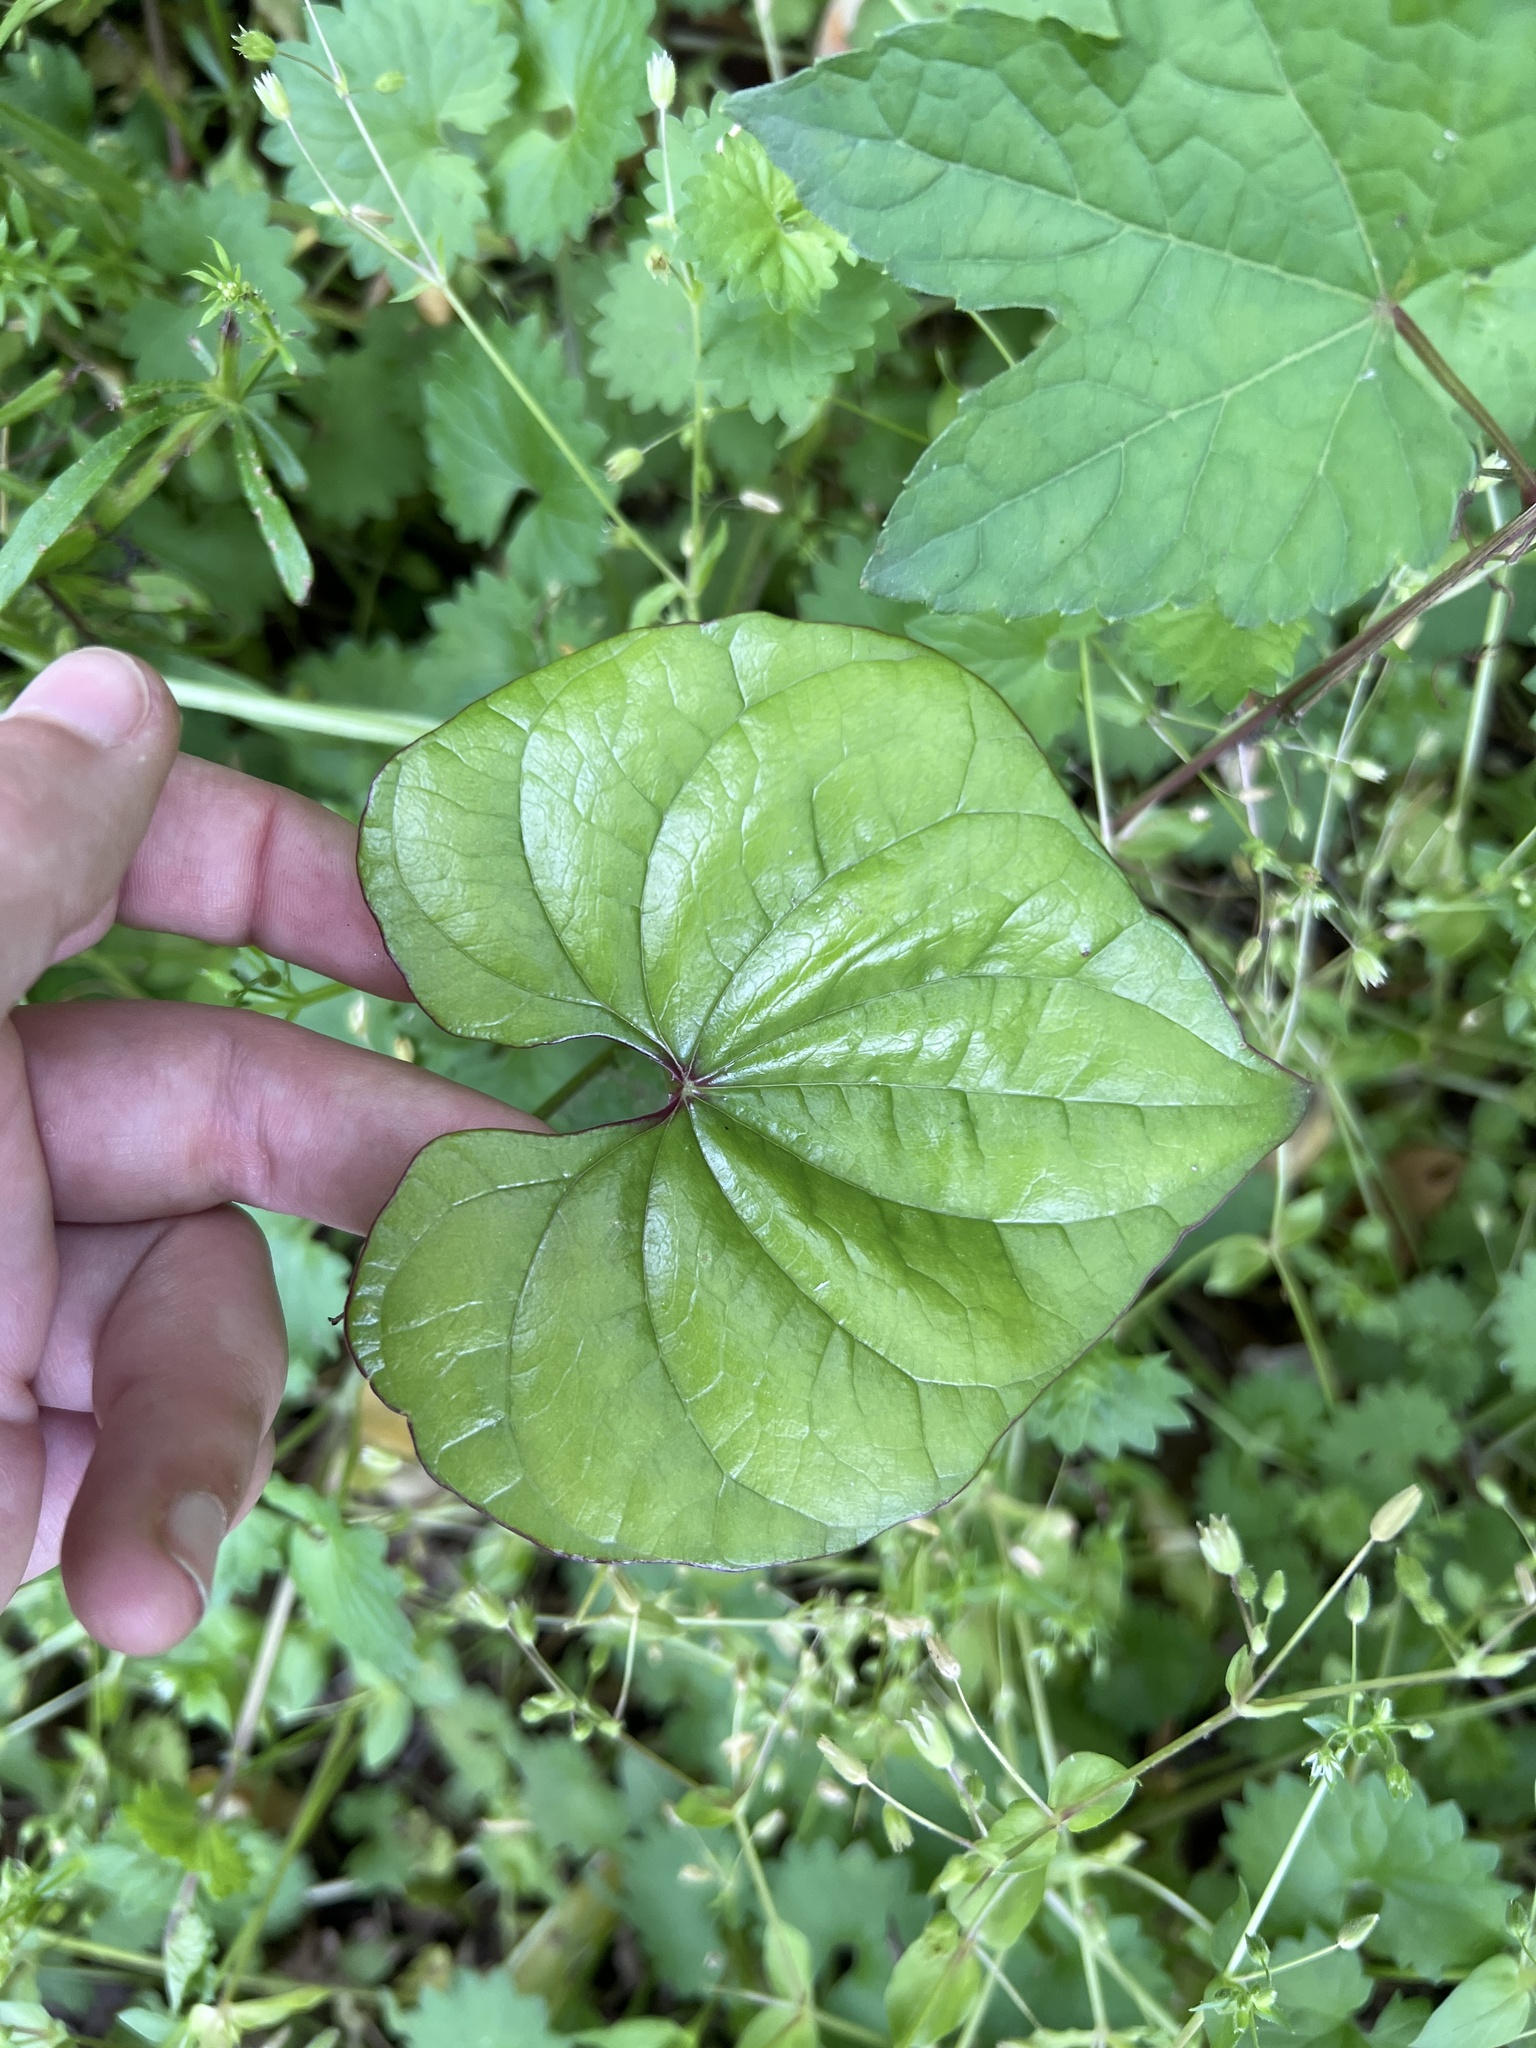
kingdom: Plantae
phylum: Tracheophyta
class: Liliopsida
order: Dioscoreales
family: Dioscoreaceae
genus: Dioscorea
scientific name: Dioscorea polystachya
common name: Chinese yam
